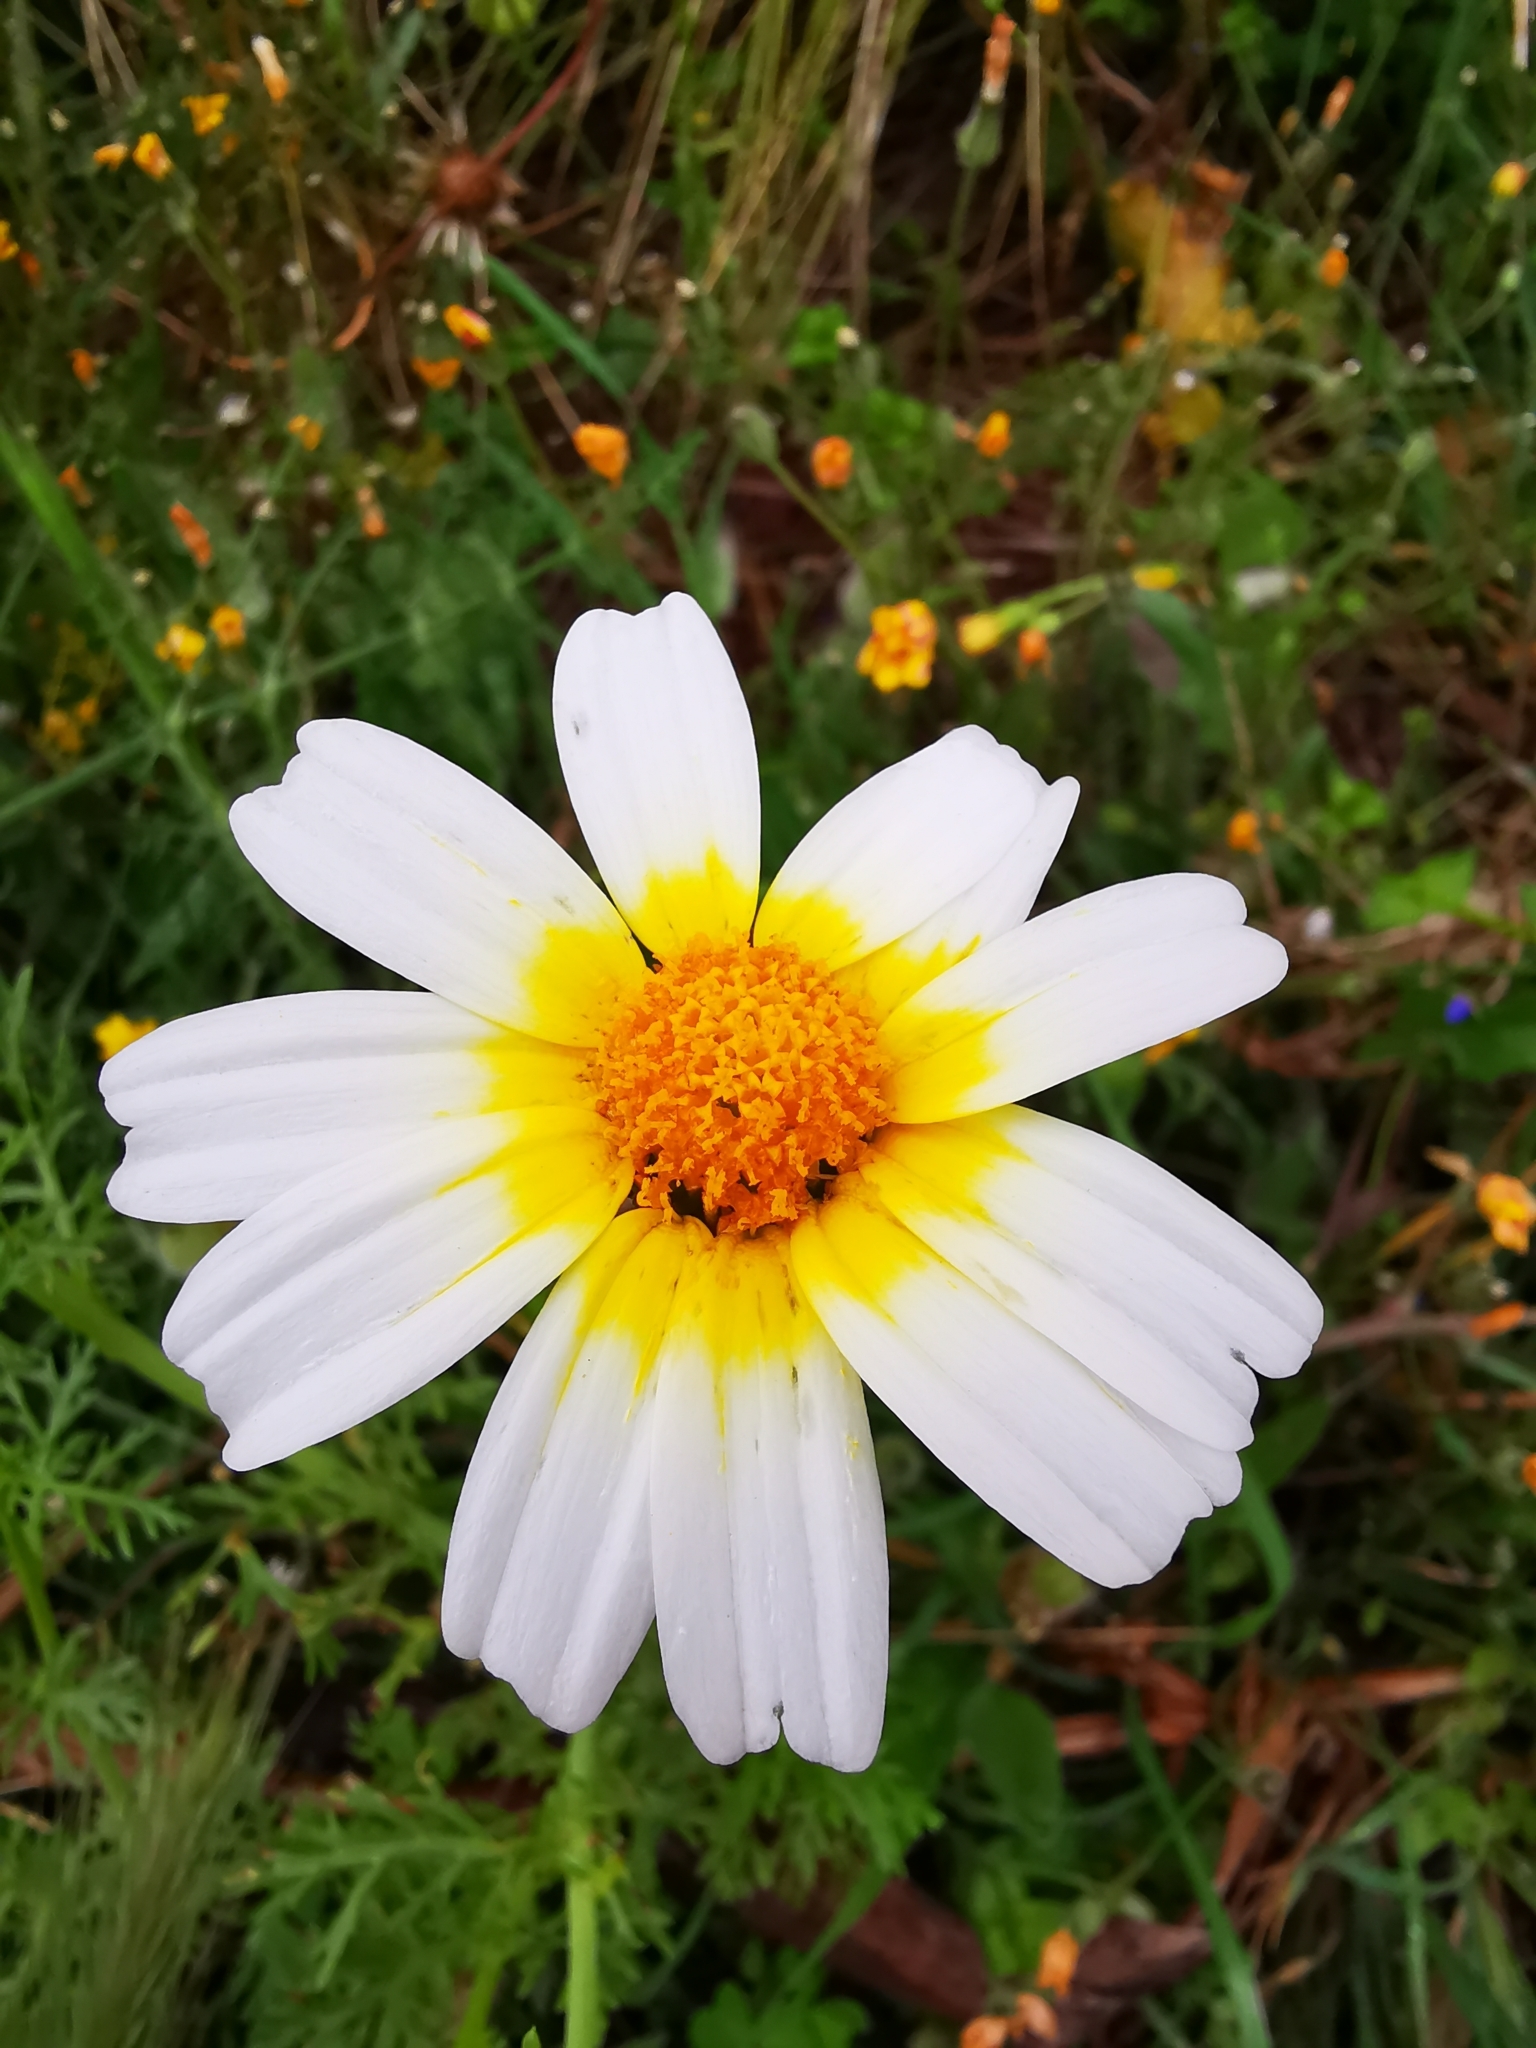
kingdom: Plantae
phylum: Tracheophyta
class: Magnoliopsida
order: Asterales
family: Asteraceae
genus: Glebionis
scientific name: Glebionis coronaria
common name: Crowndaisy
